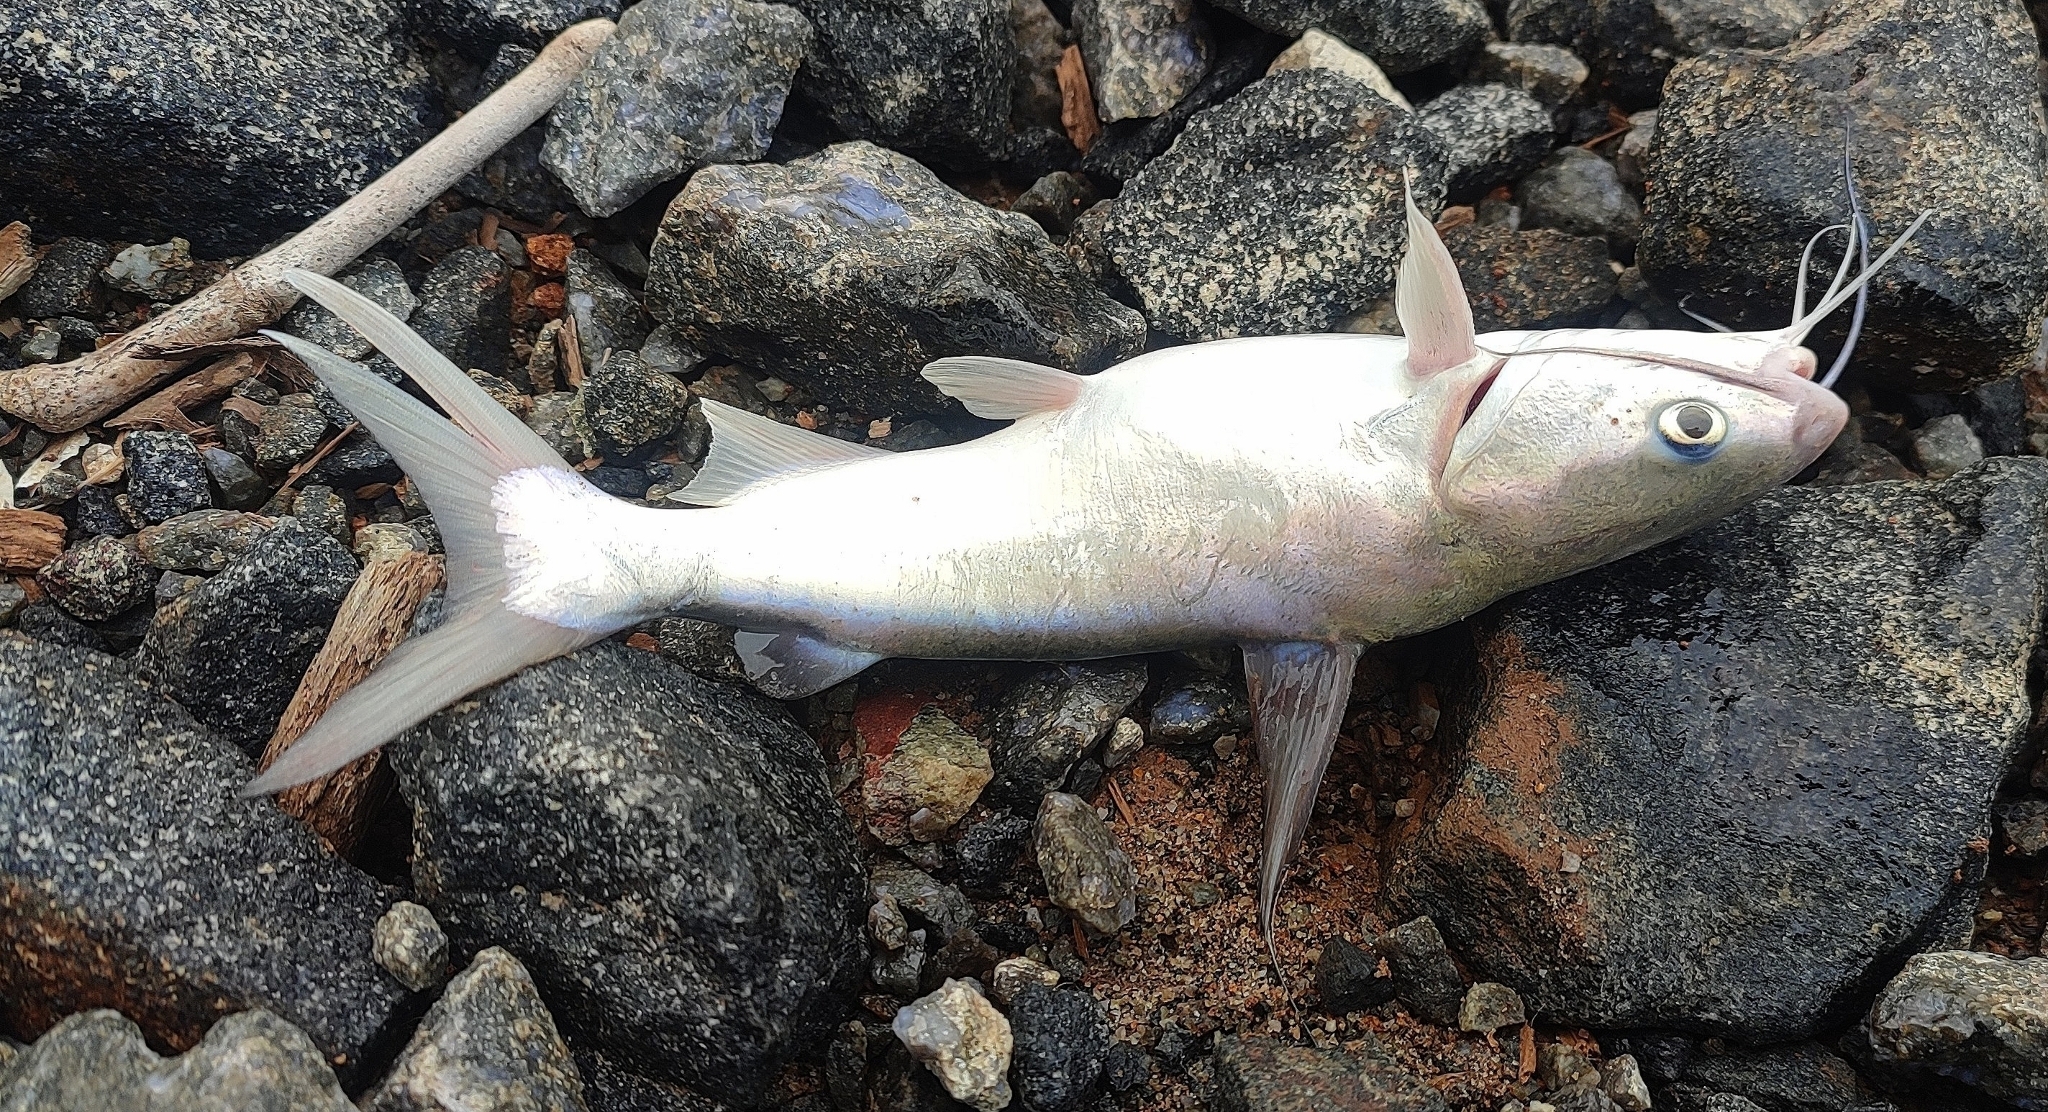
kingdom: Animalia
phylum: Chordata
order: Siluriformes
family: Ariidae
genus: Plicofollis
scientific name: Plicofollis dussumieri
